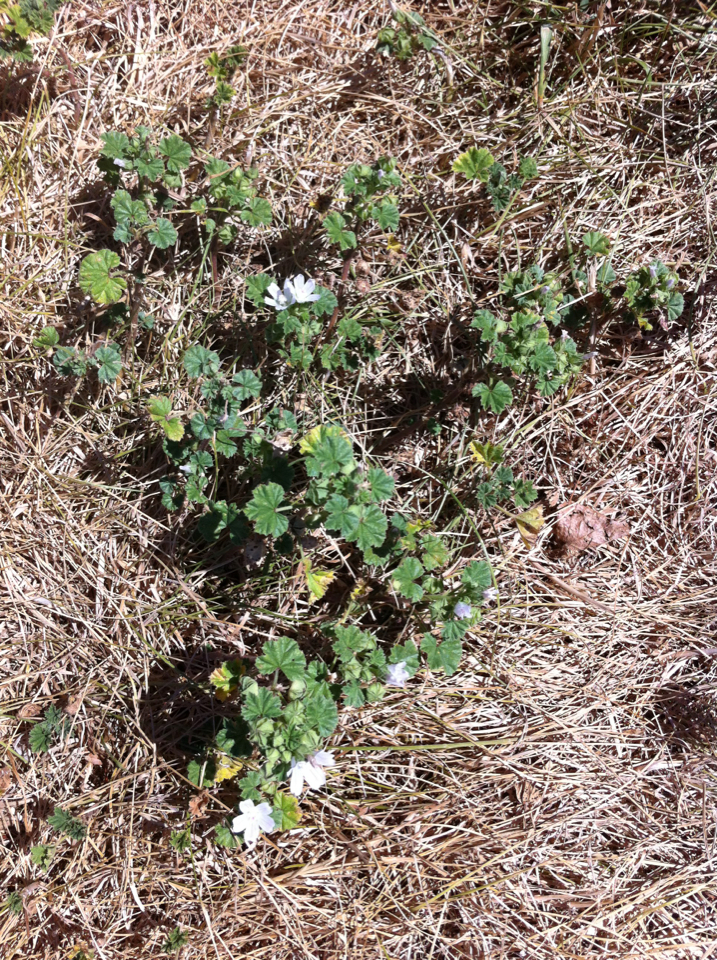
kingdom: Plantae
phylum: Tracheophyta
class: Magnoliopsida
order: Malvales
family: Malvaceae
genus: Malva
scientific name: Malva neglecta
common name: Common mallow
